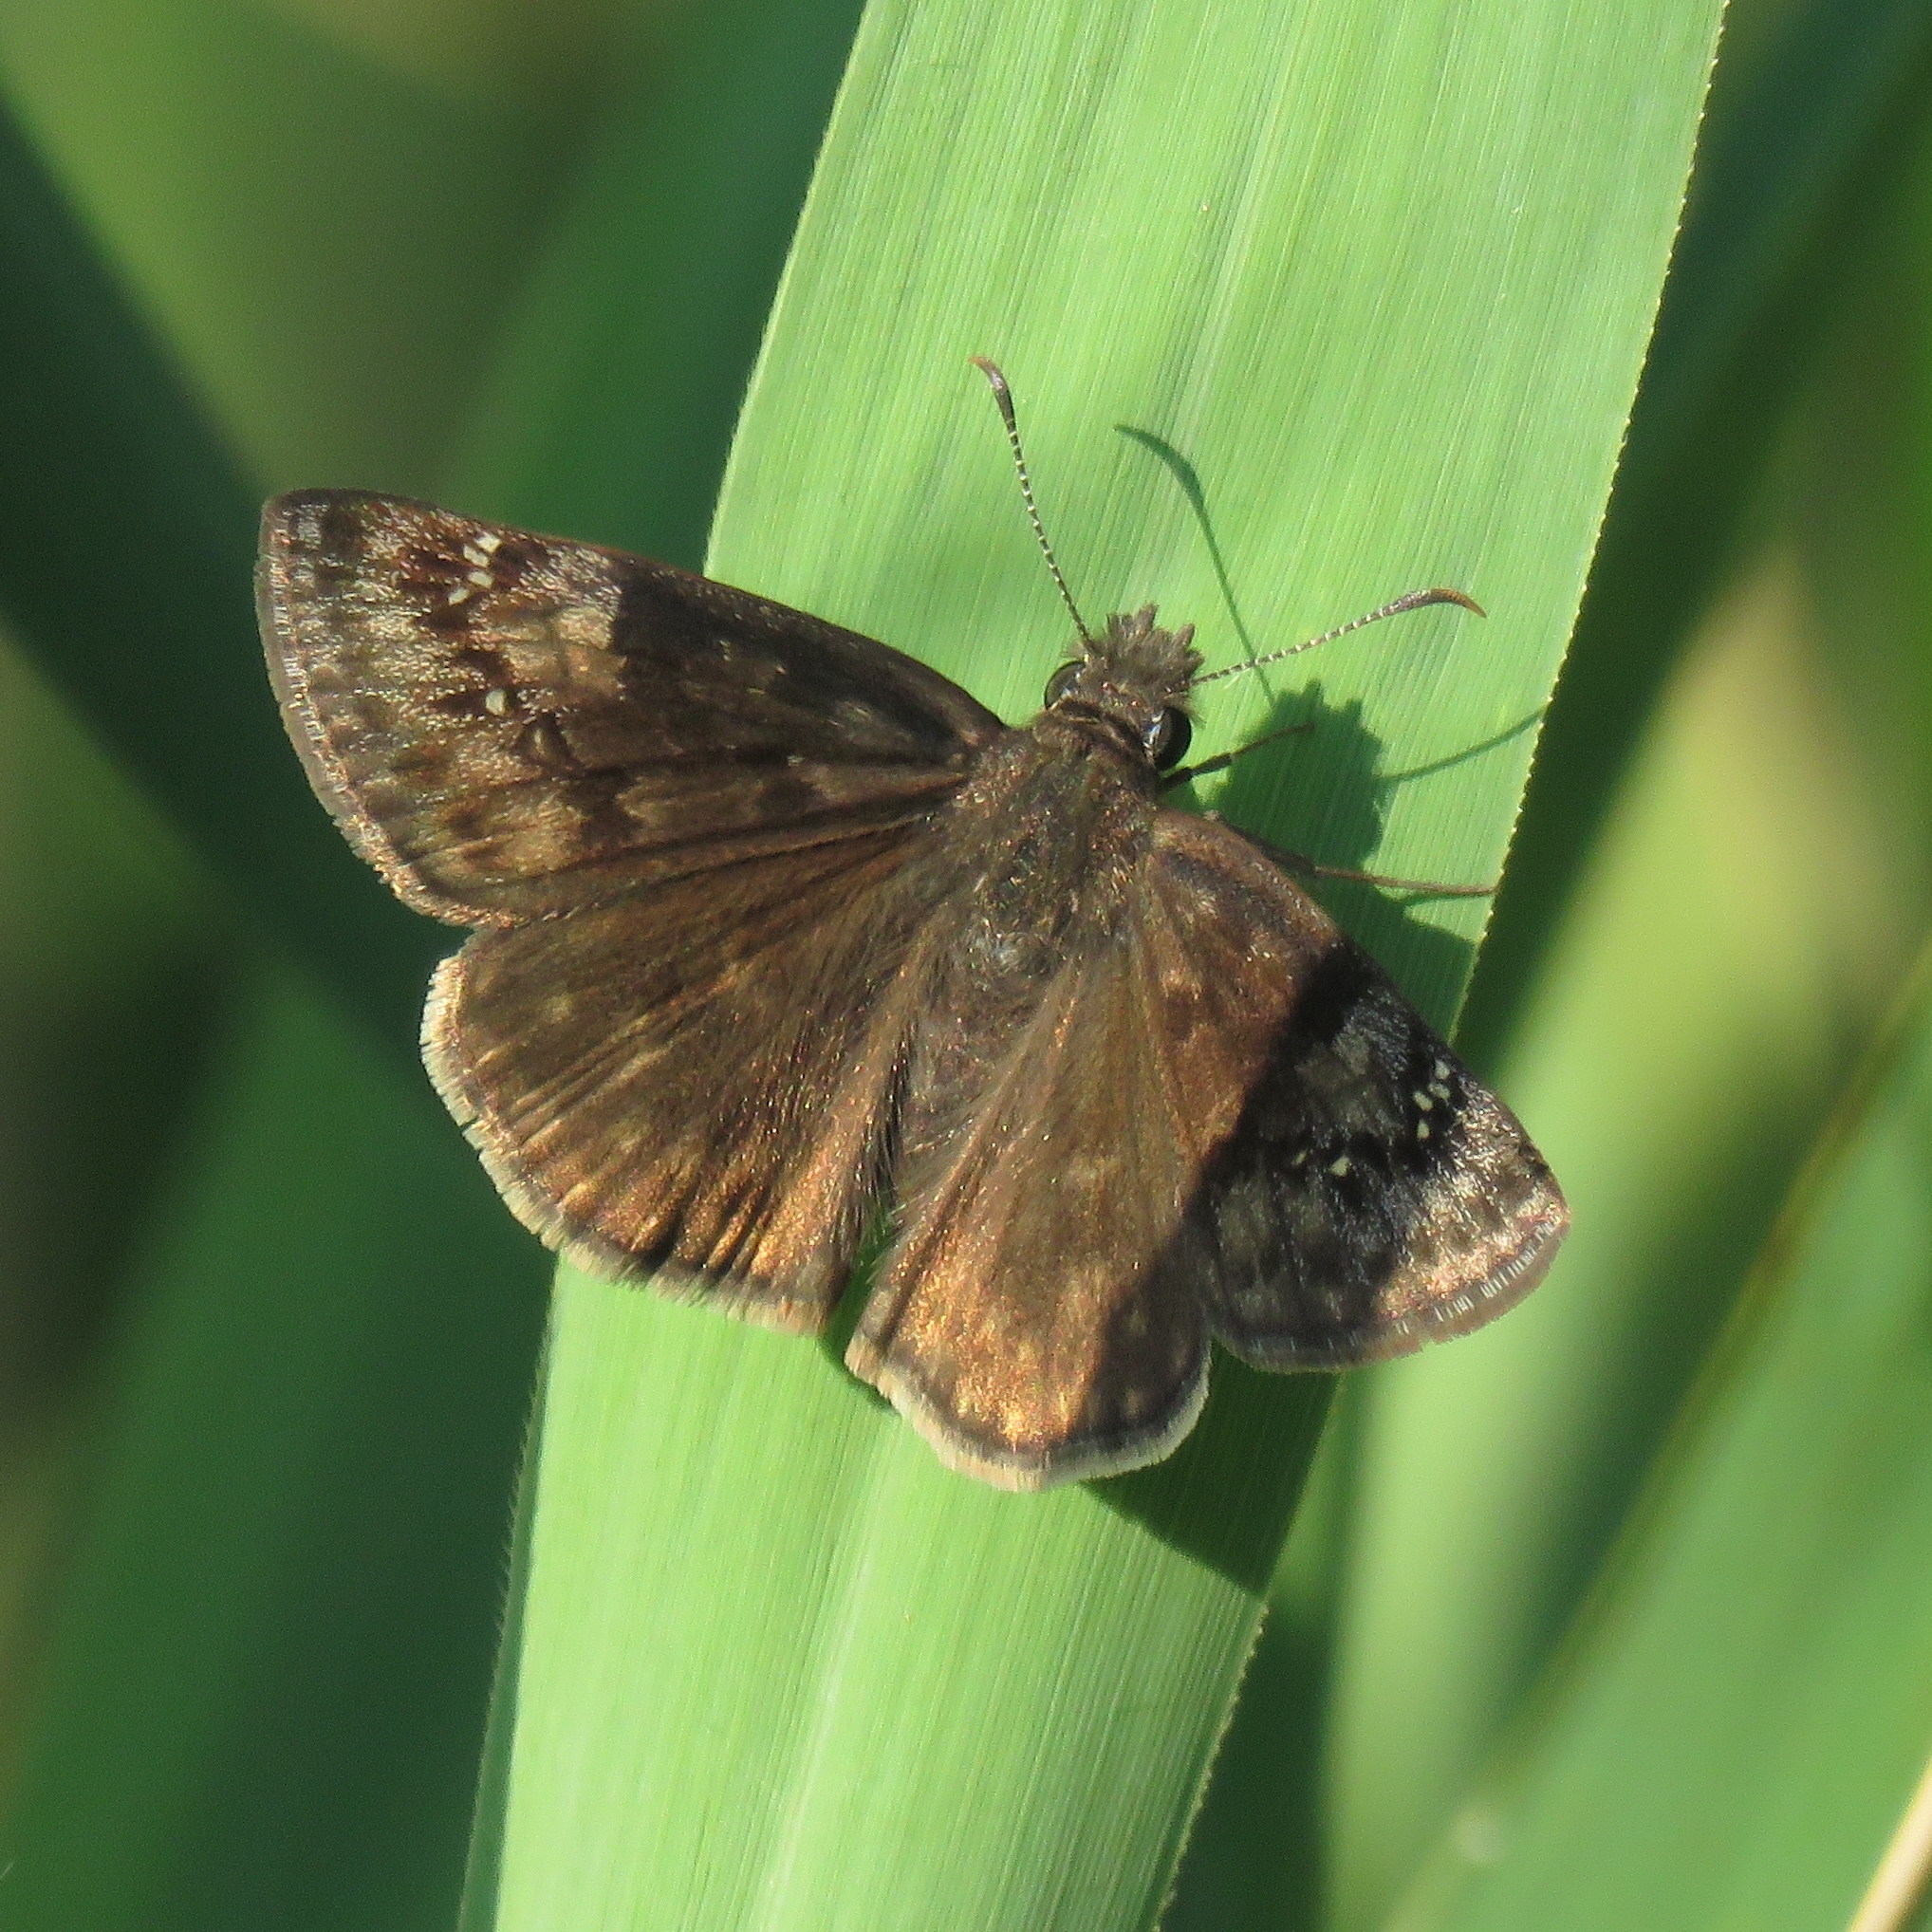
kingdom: Animalia
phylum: Arthropoda
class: Insecta
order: Lepidoptera
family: Hesperiidae
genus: Erynnis
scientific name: Erynnis baptisiae
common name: Wild indigo duskywing
